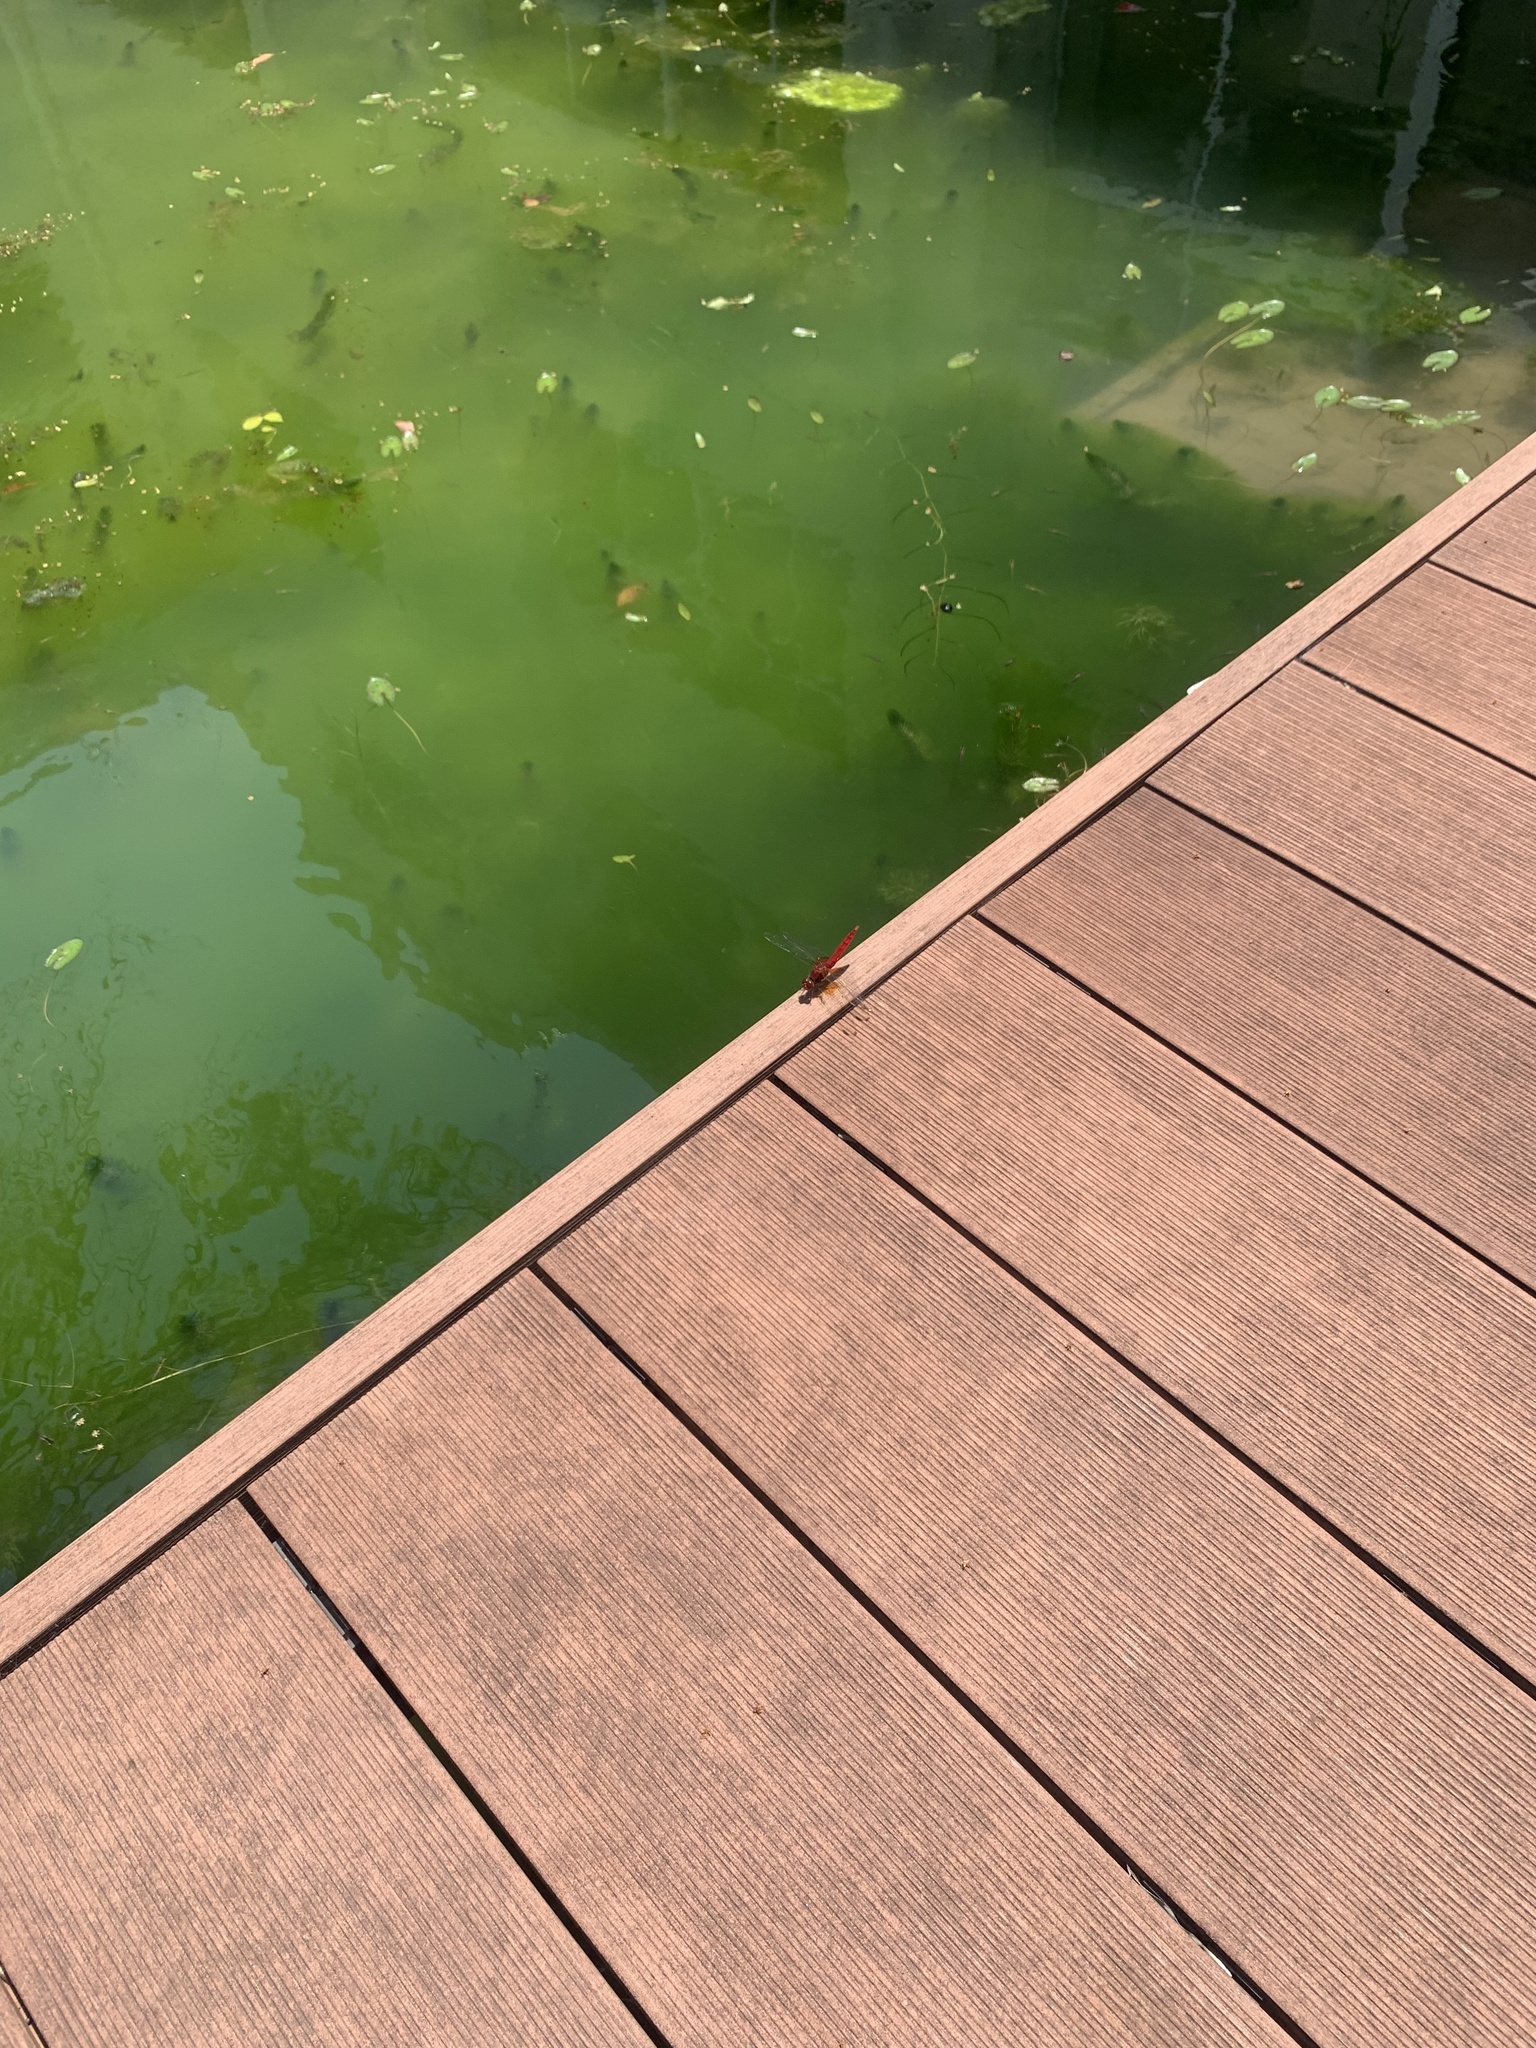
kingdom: Animalia
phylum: Arthropoda
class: Insecta
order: Odonata
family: Libellulidae
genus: Crocothemis
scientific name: Crocothemis servilia
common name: Scarlet skimmer
